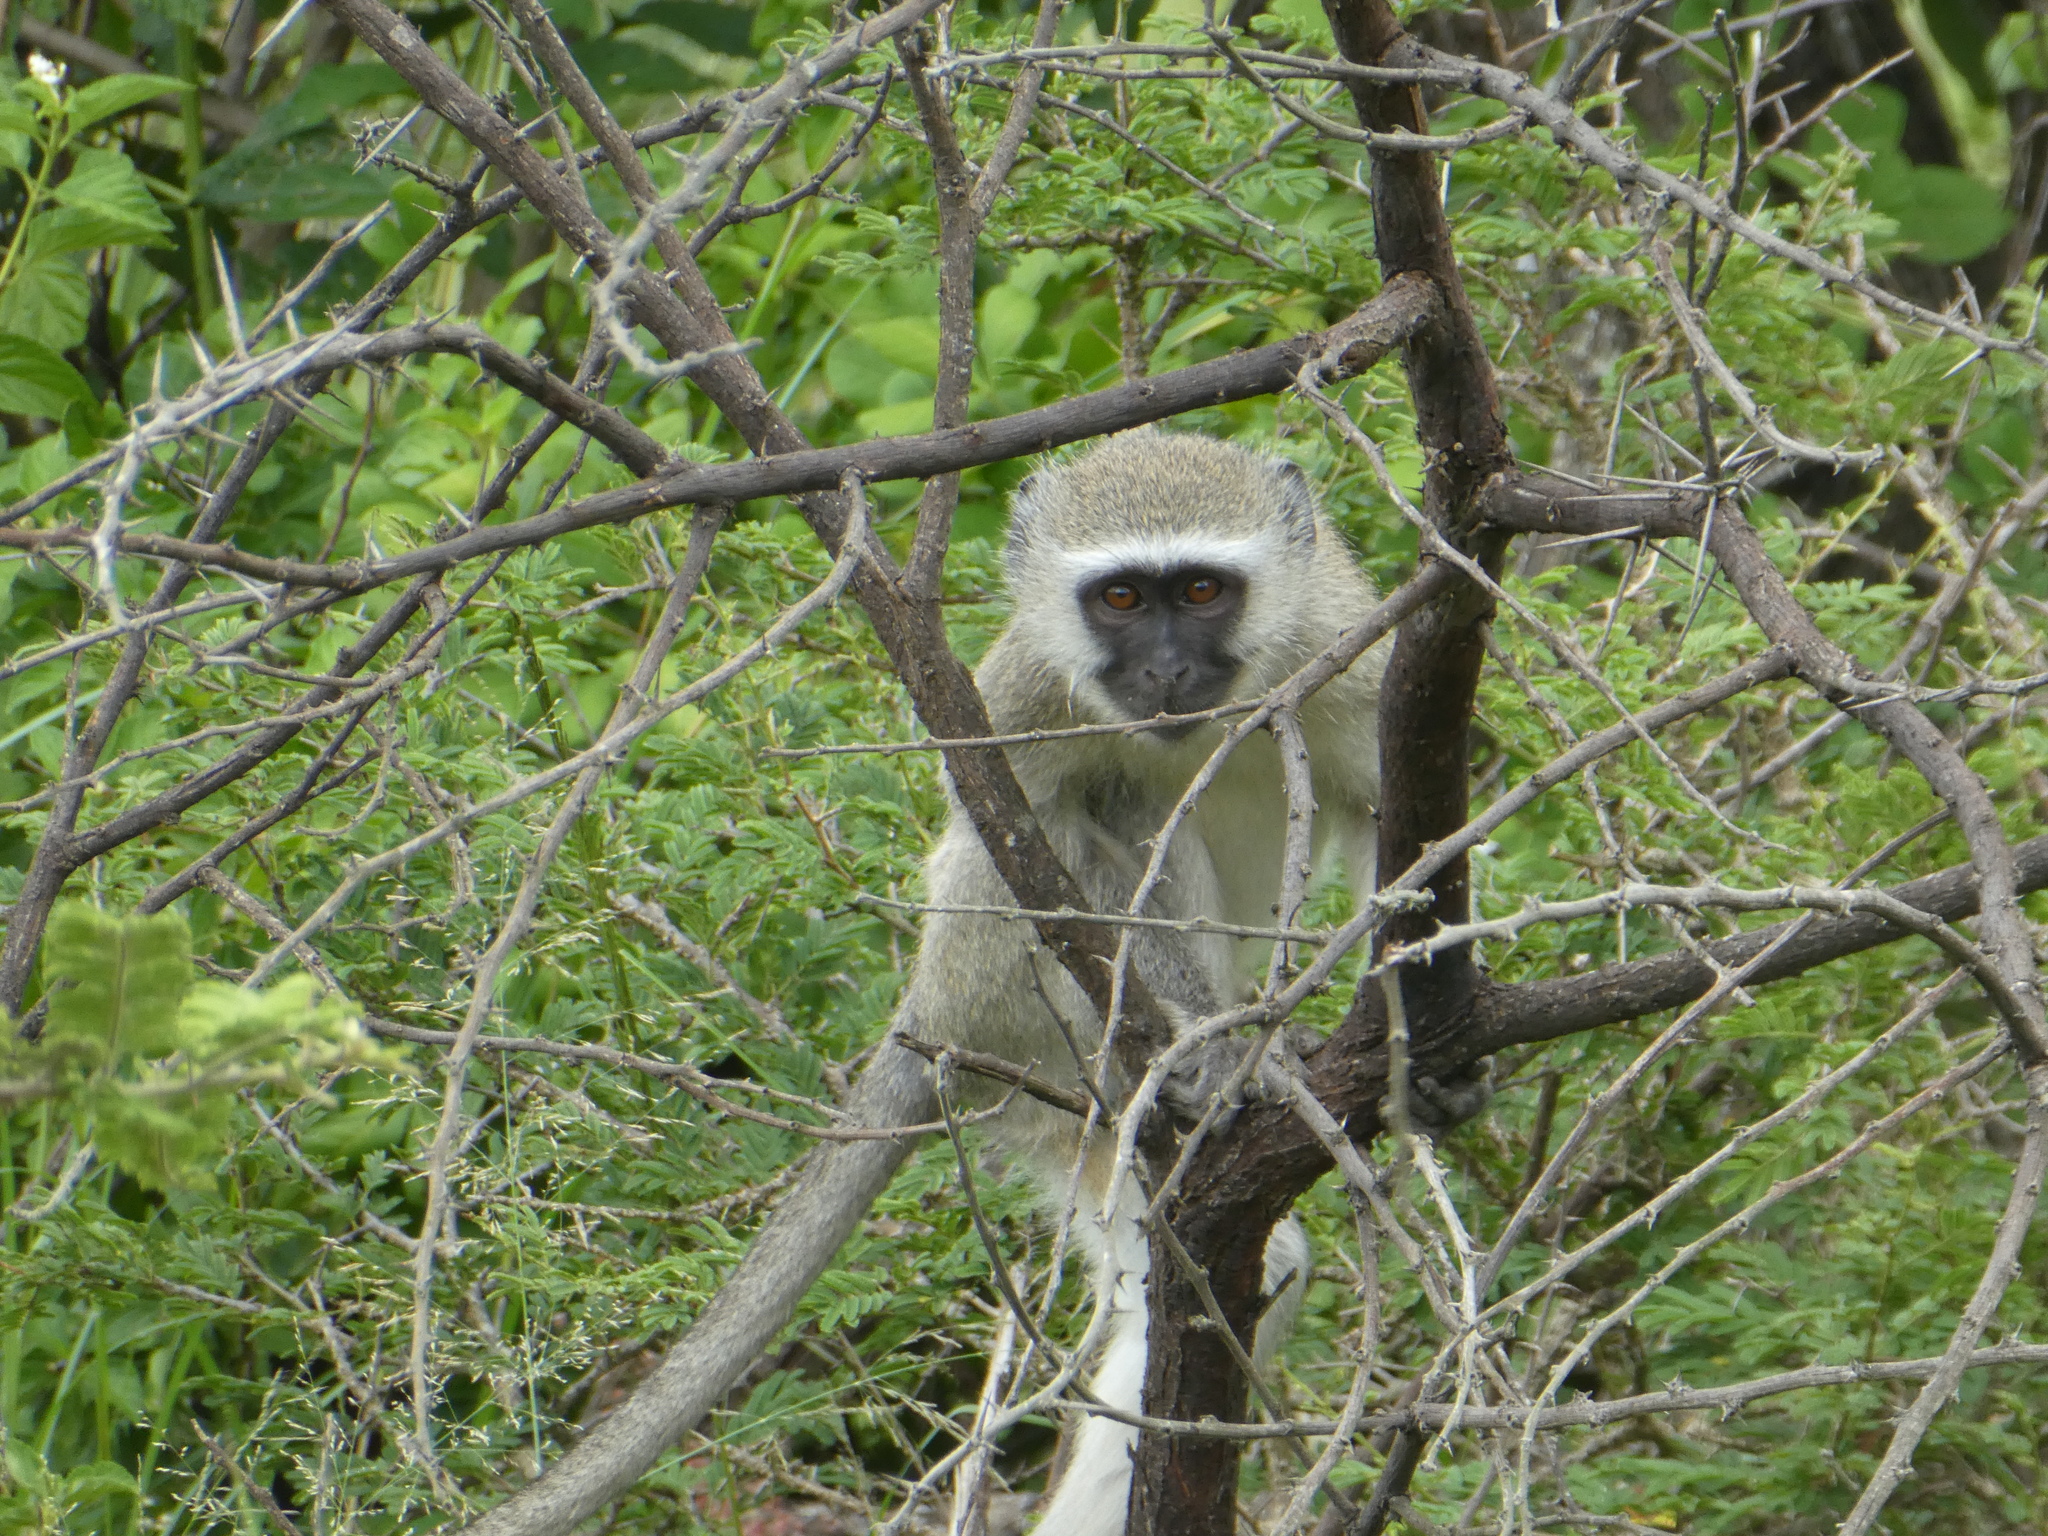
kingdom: Animalia
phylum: Chordata
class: Mammalia
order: Primates
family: Cercopithecidae
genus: Chlorocebus
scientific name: Chlorocebus pygerythrus
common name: Vervet monkey
